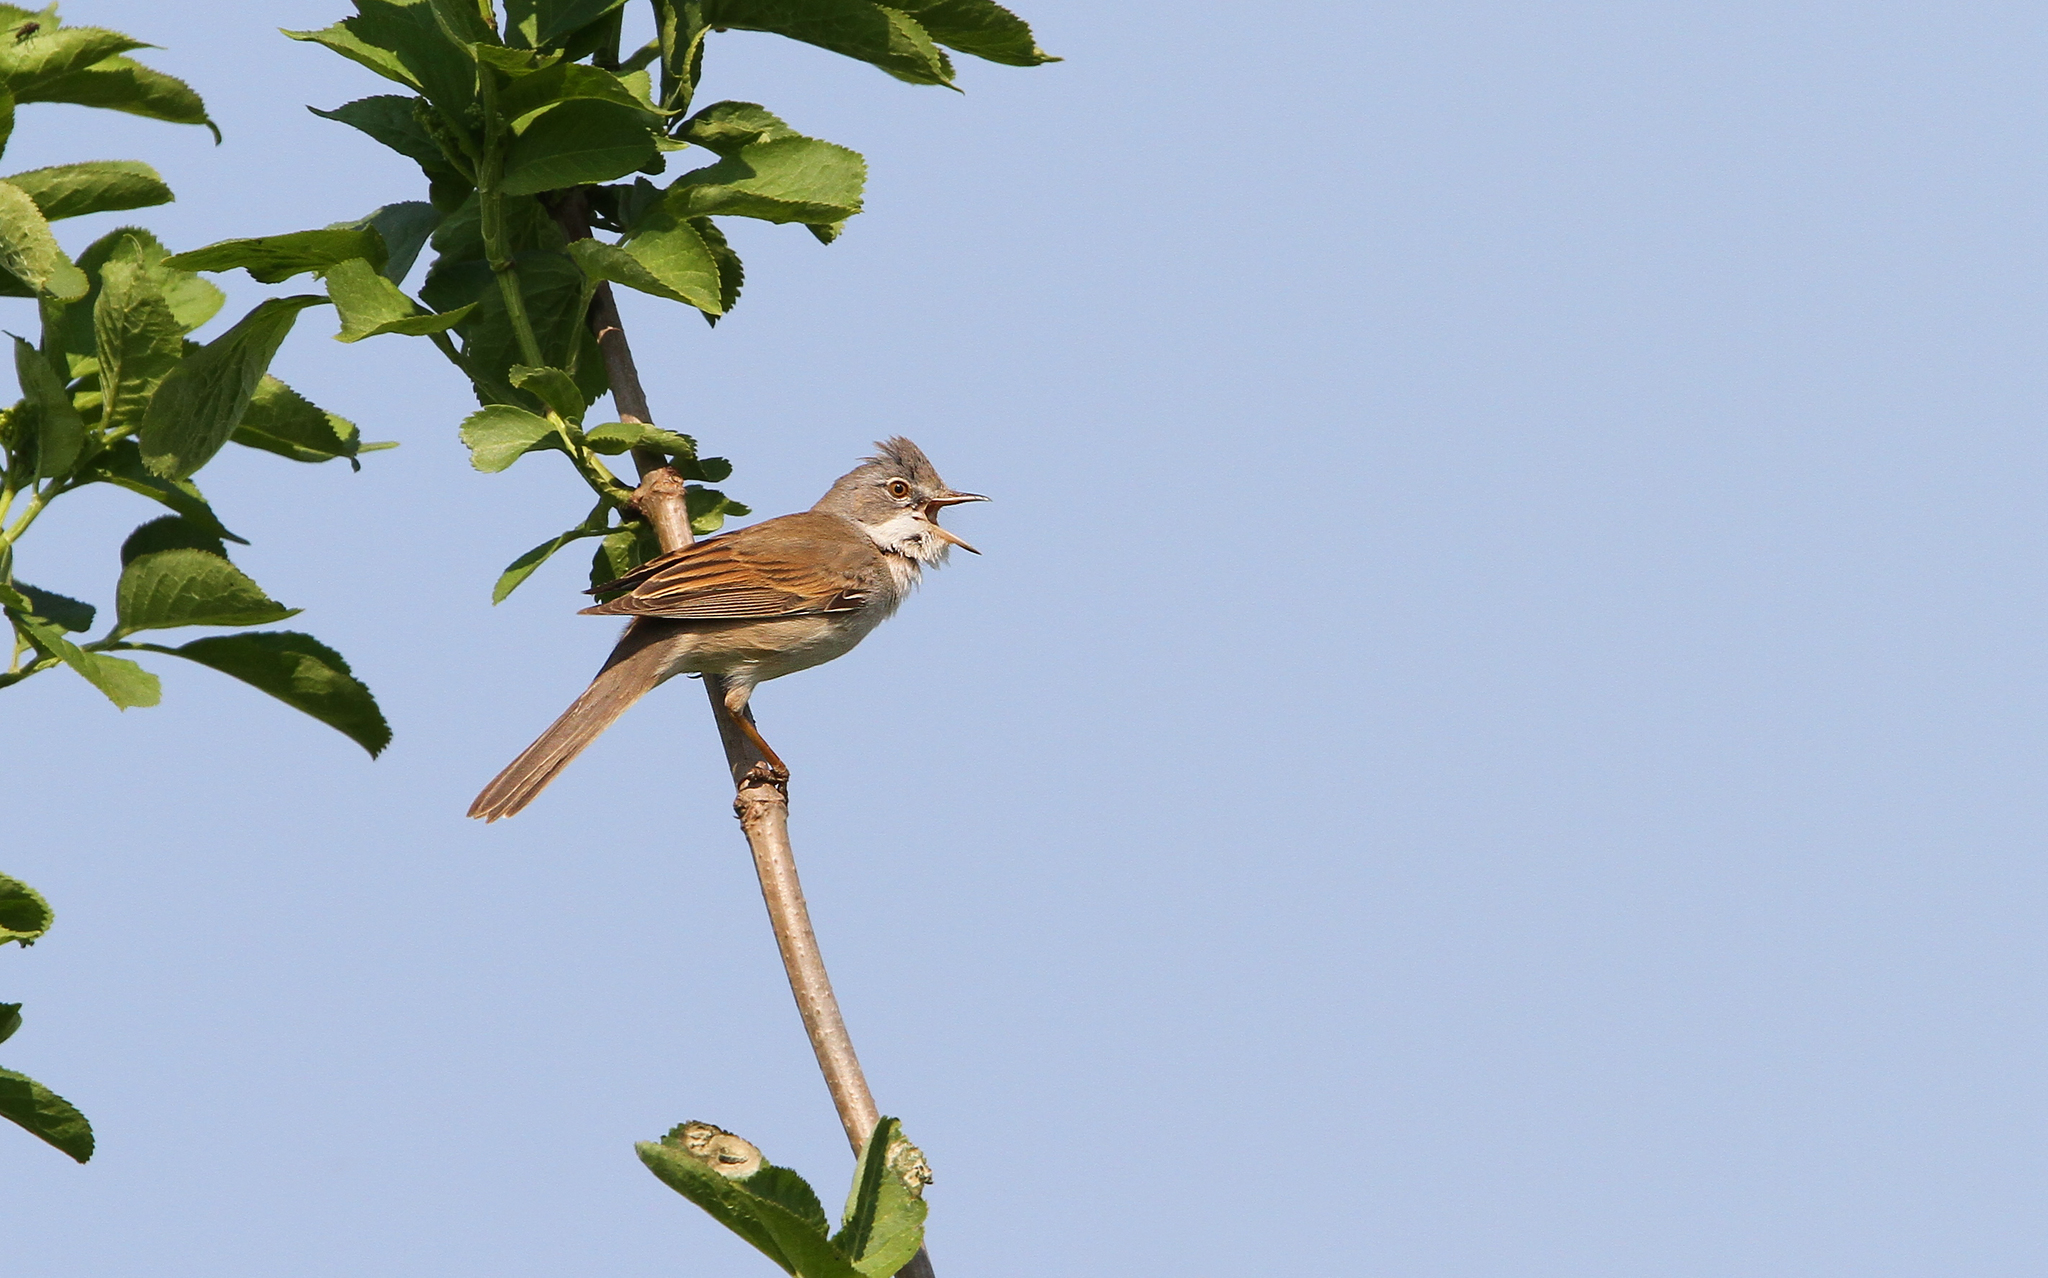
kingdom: Animalia
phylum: Chordata
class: Aves
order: Passeriformes
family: Sylviidae
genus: Sylvia
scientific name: Sylvia communis
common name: Common whitethroat
